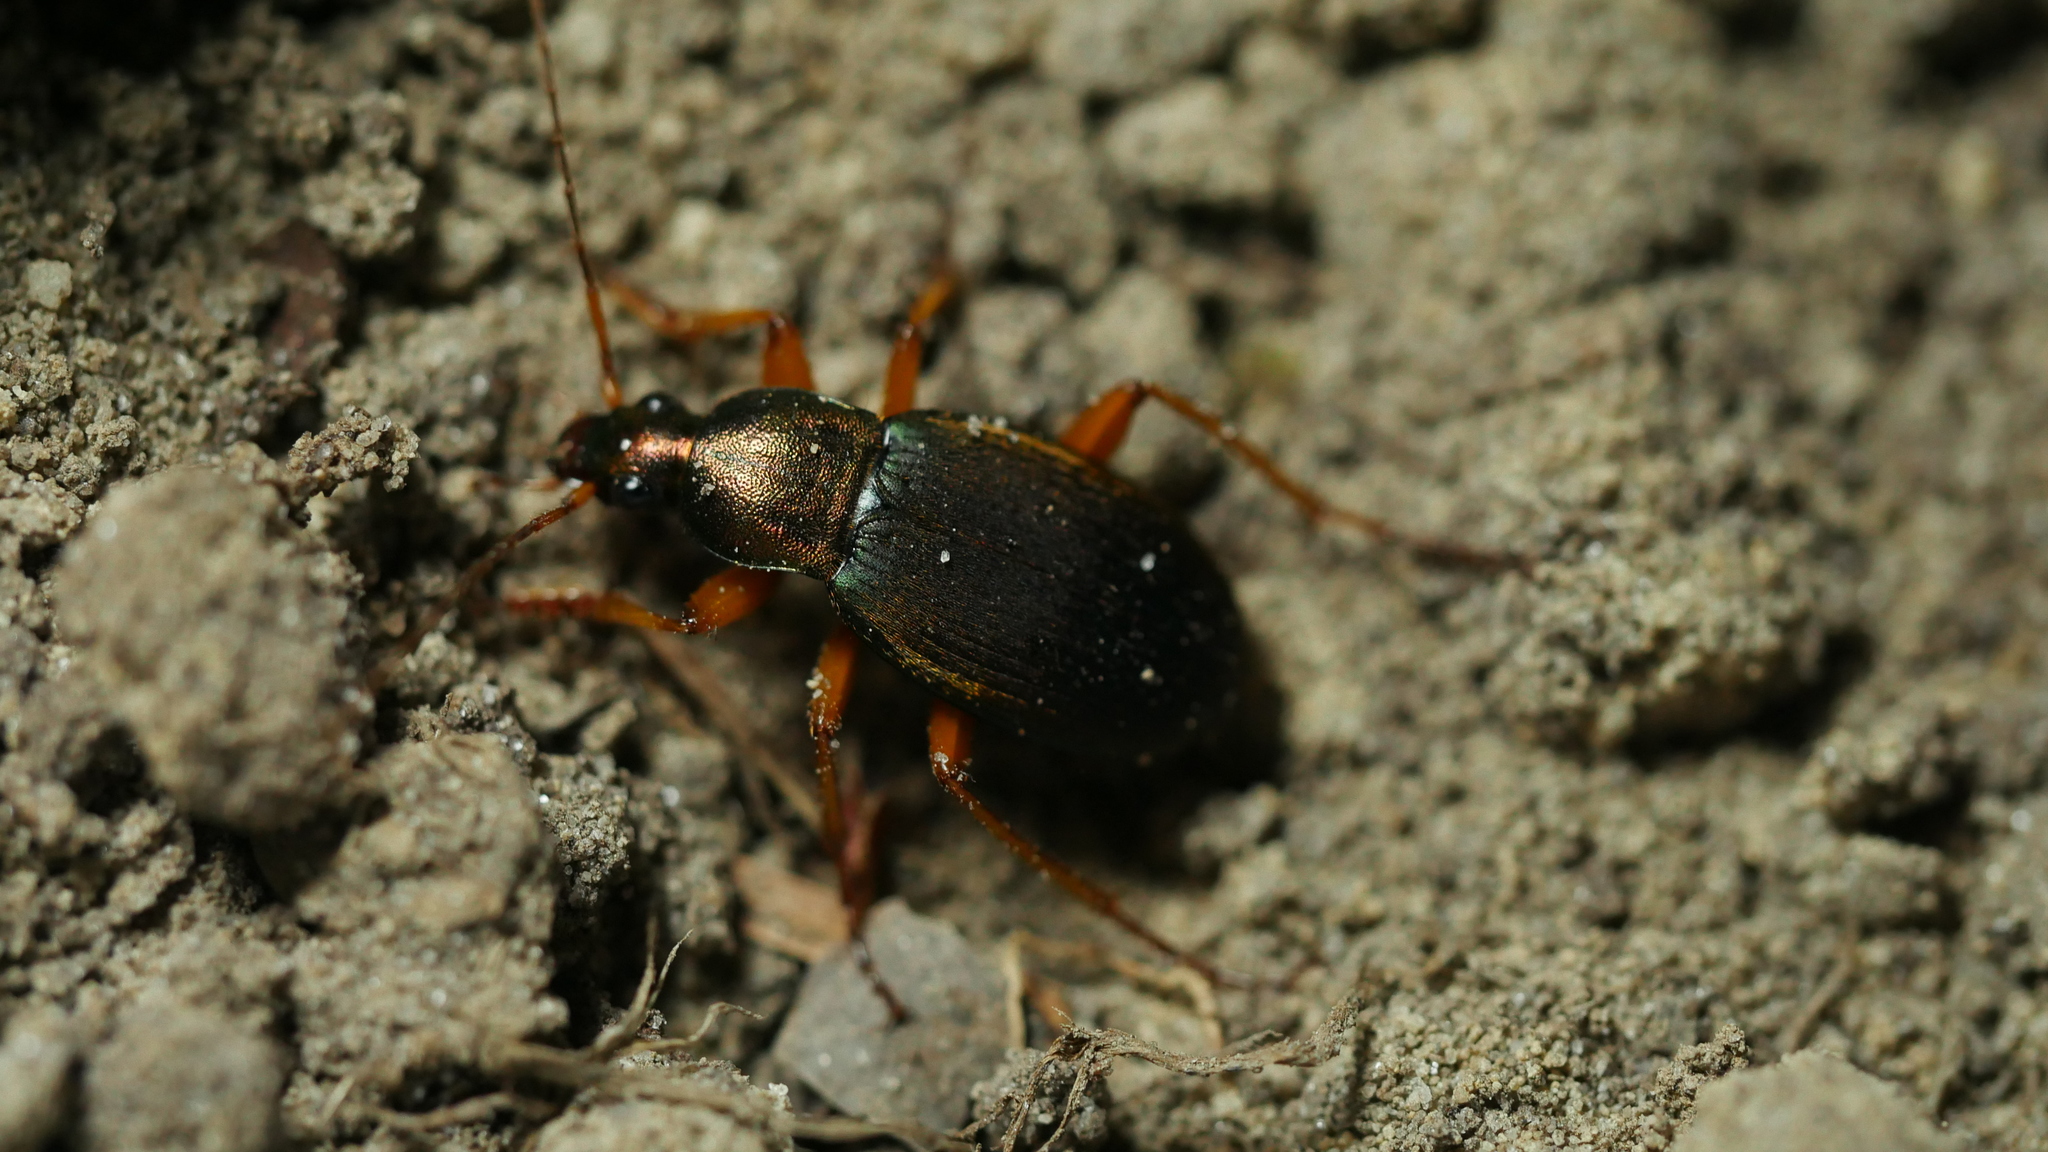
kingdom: Animalia
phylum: Arthropoda
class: Insecta
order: Coleoptera
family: Carabidae
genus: Chlaenius
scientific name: Chlaenius aestivus
